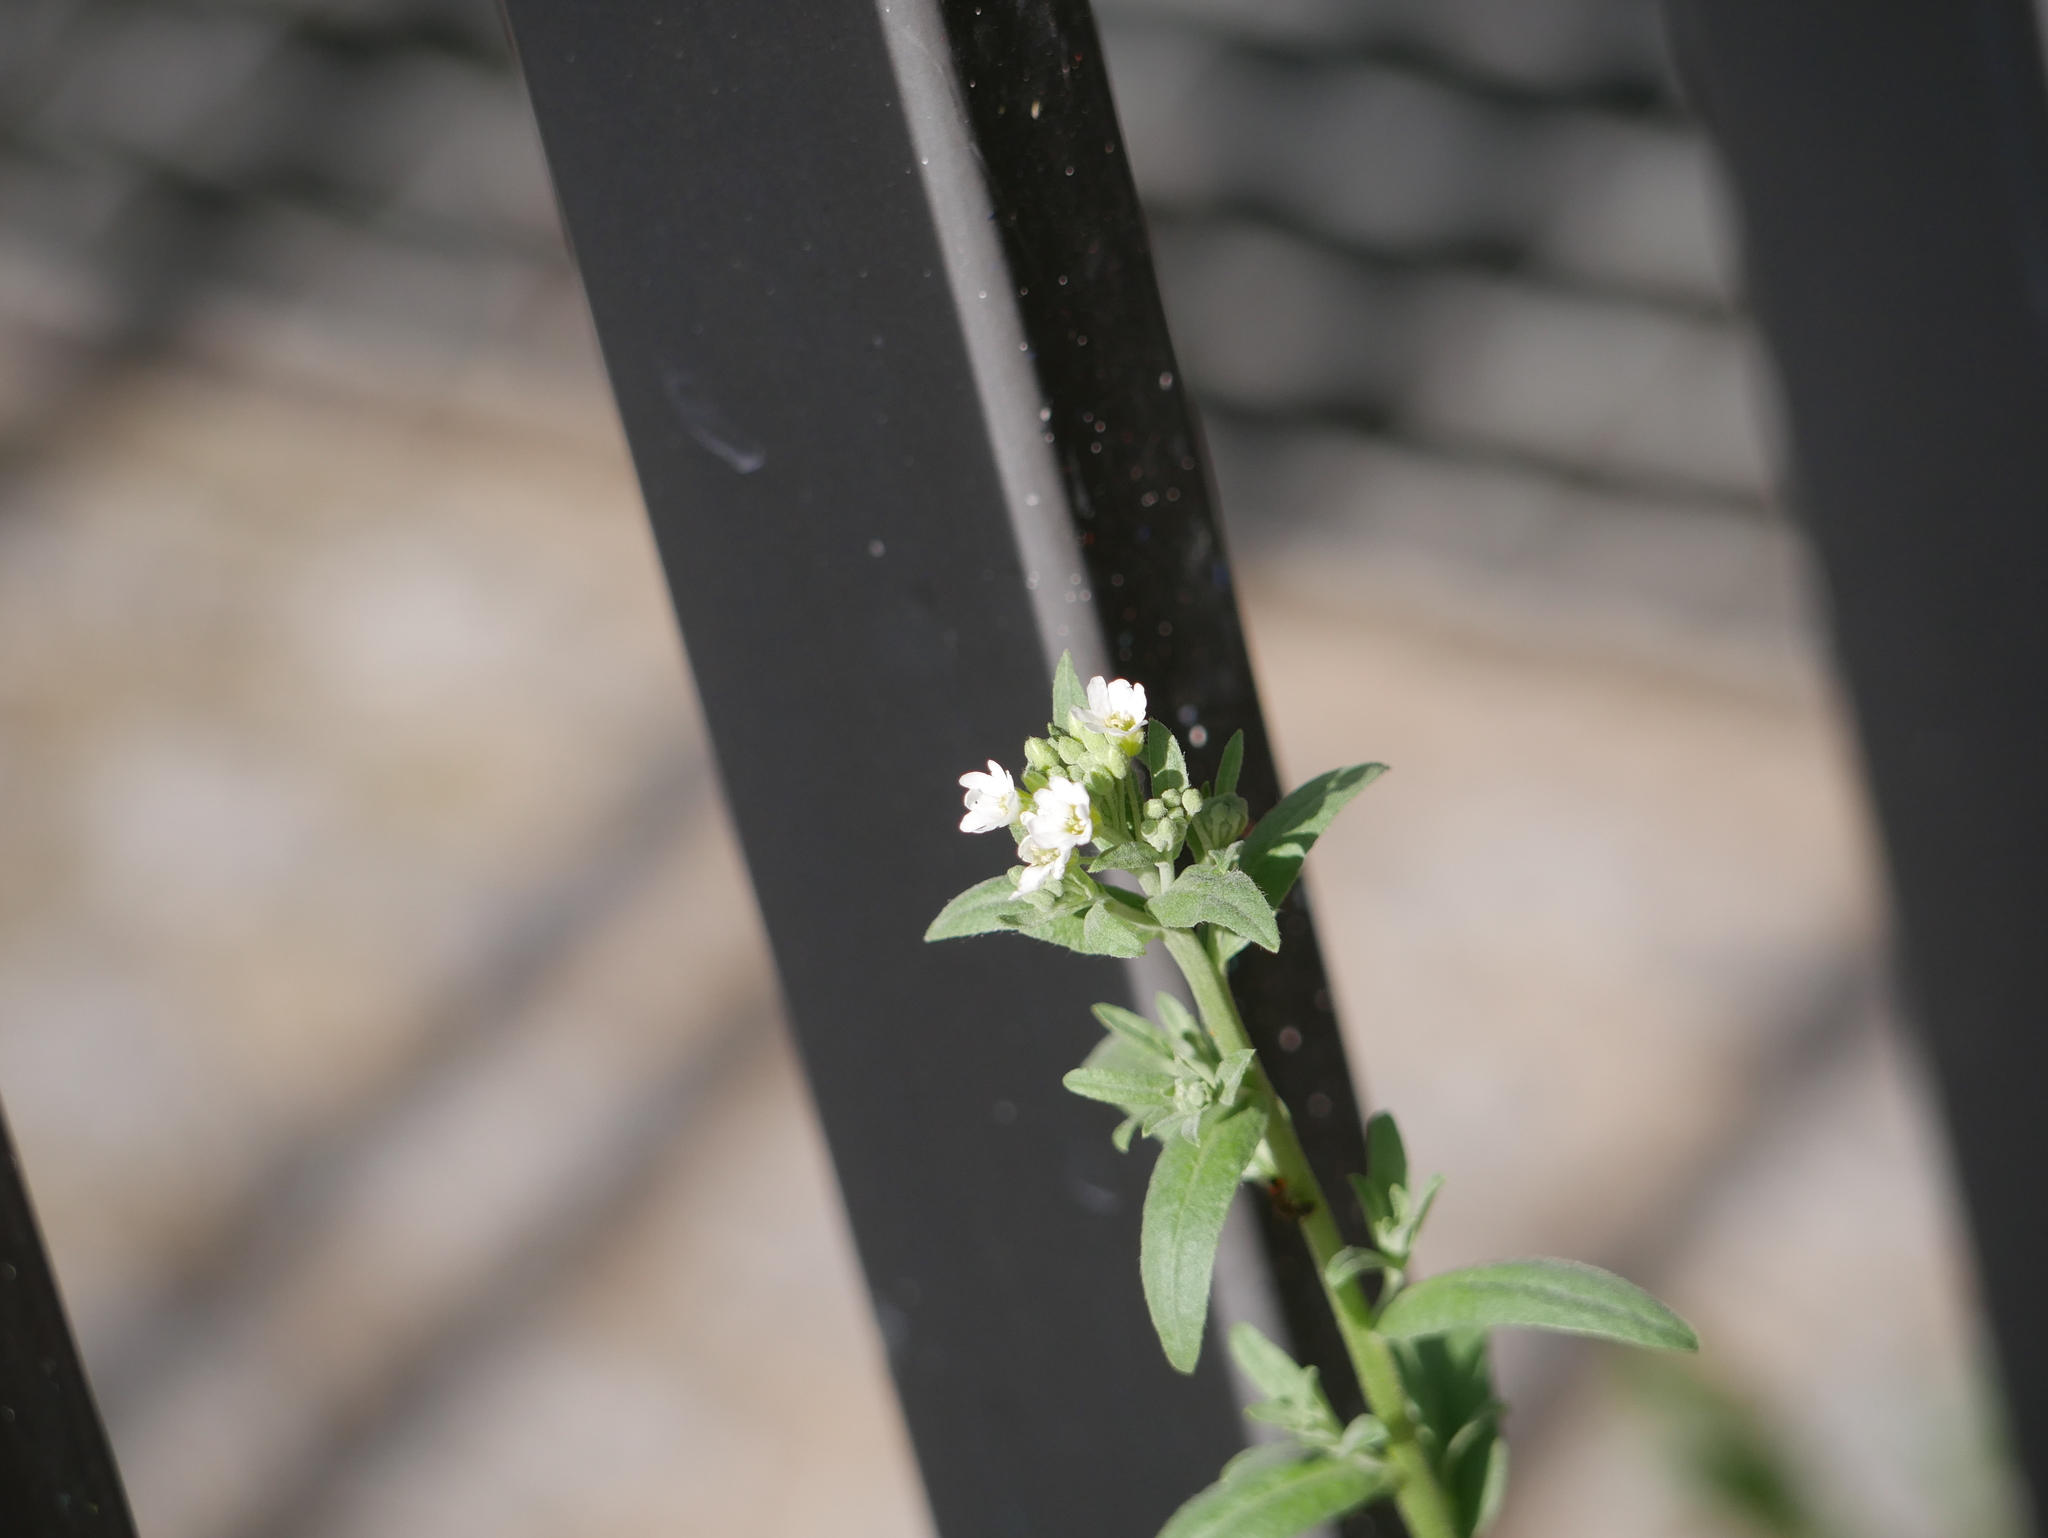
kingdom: Plantae
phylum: Tracheophyta
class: Magnoliopsida
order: Brassicales
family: Brassicaceae
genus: Berteroa
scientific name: Berteroa incana
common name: Hoary alison
